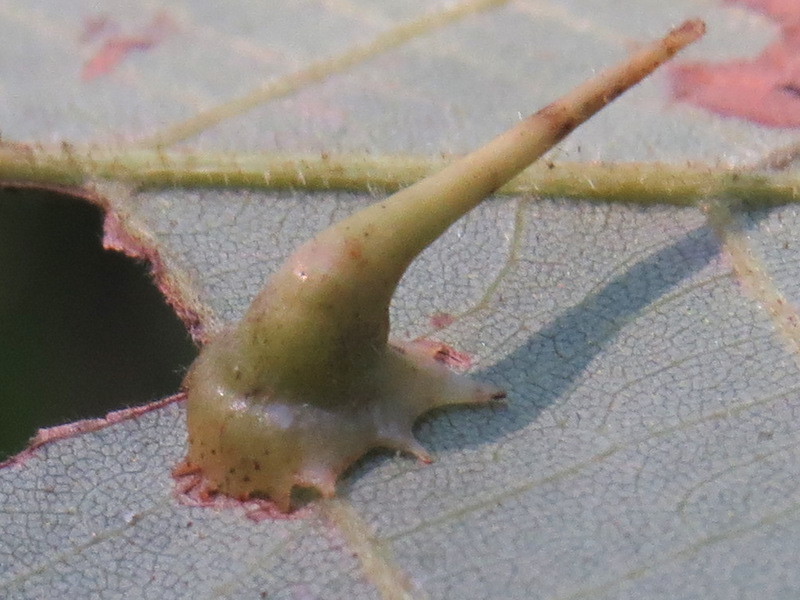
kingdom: Animalia
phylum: Arthropoda
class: Insecta
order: Diptera
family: Cecidomyiidae
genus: Caryomyia
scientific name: Caryomyia stellata
